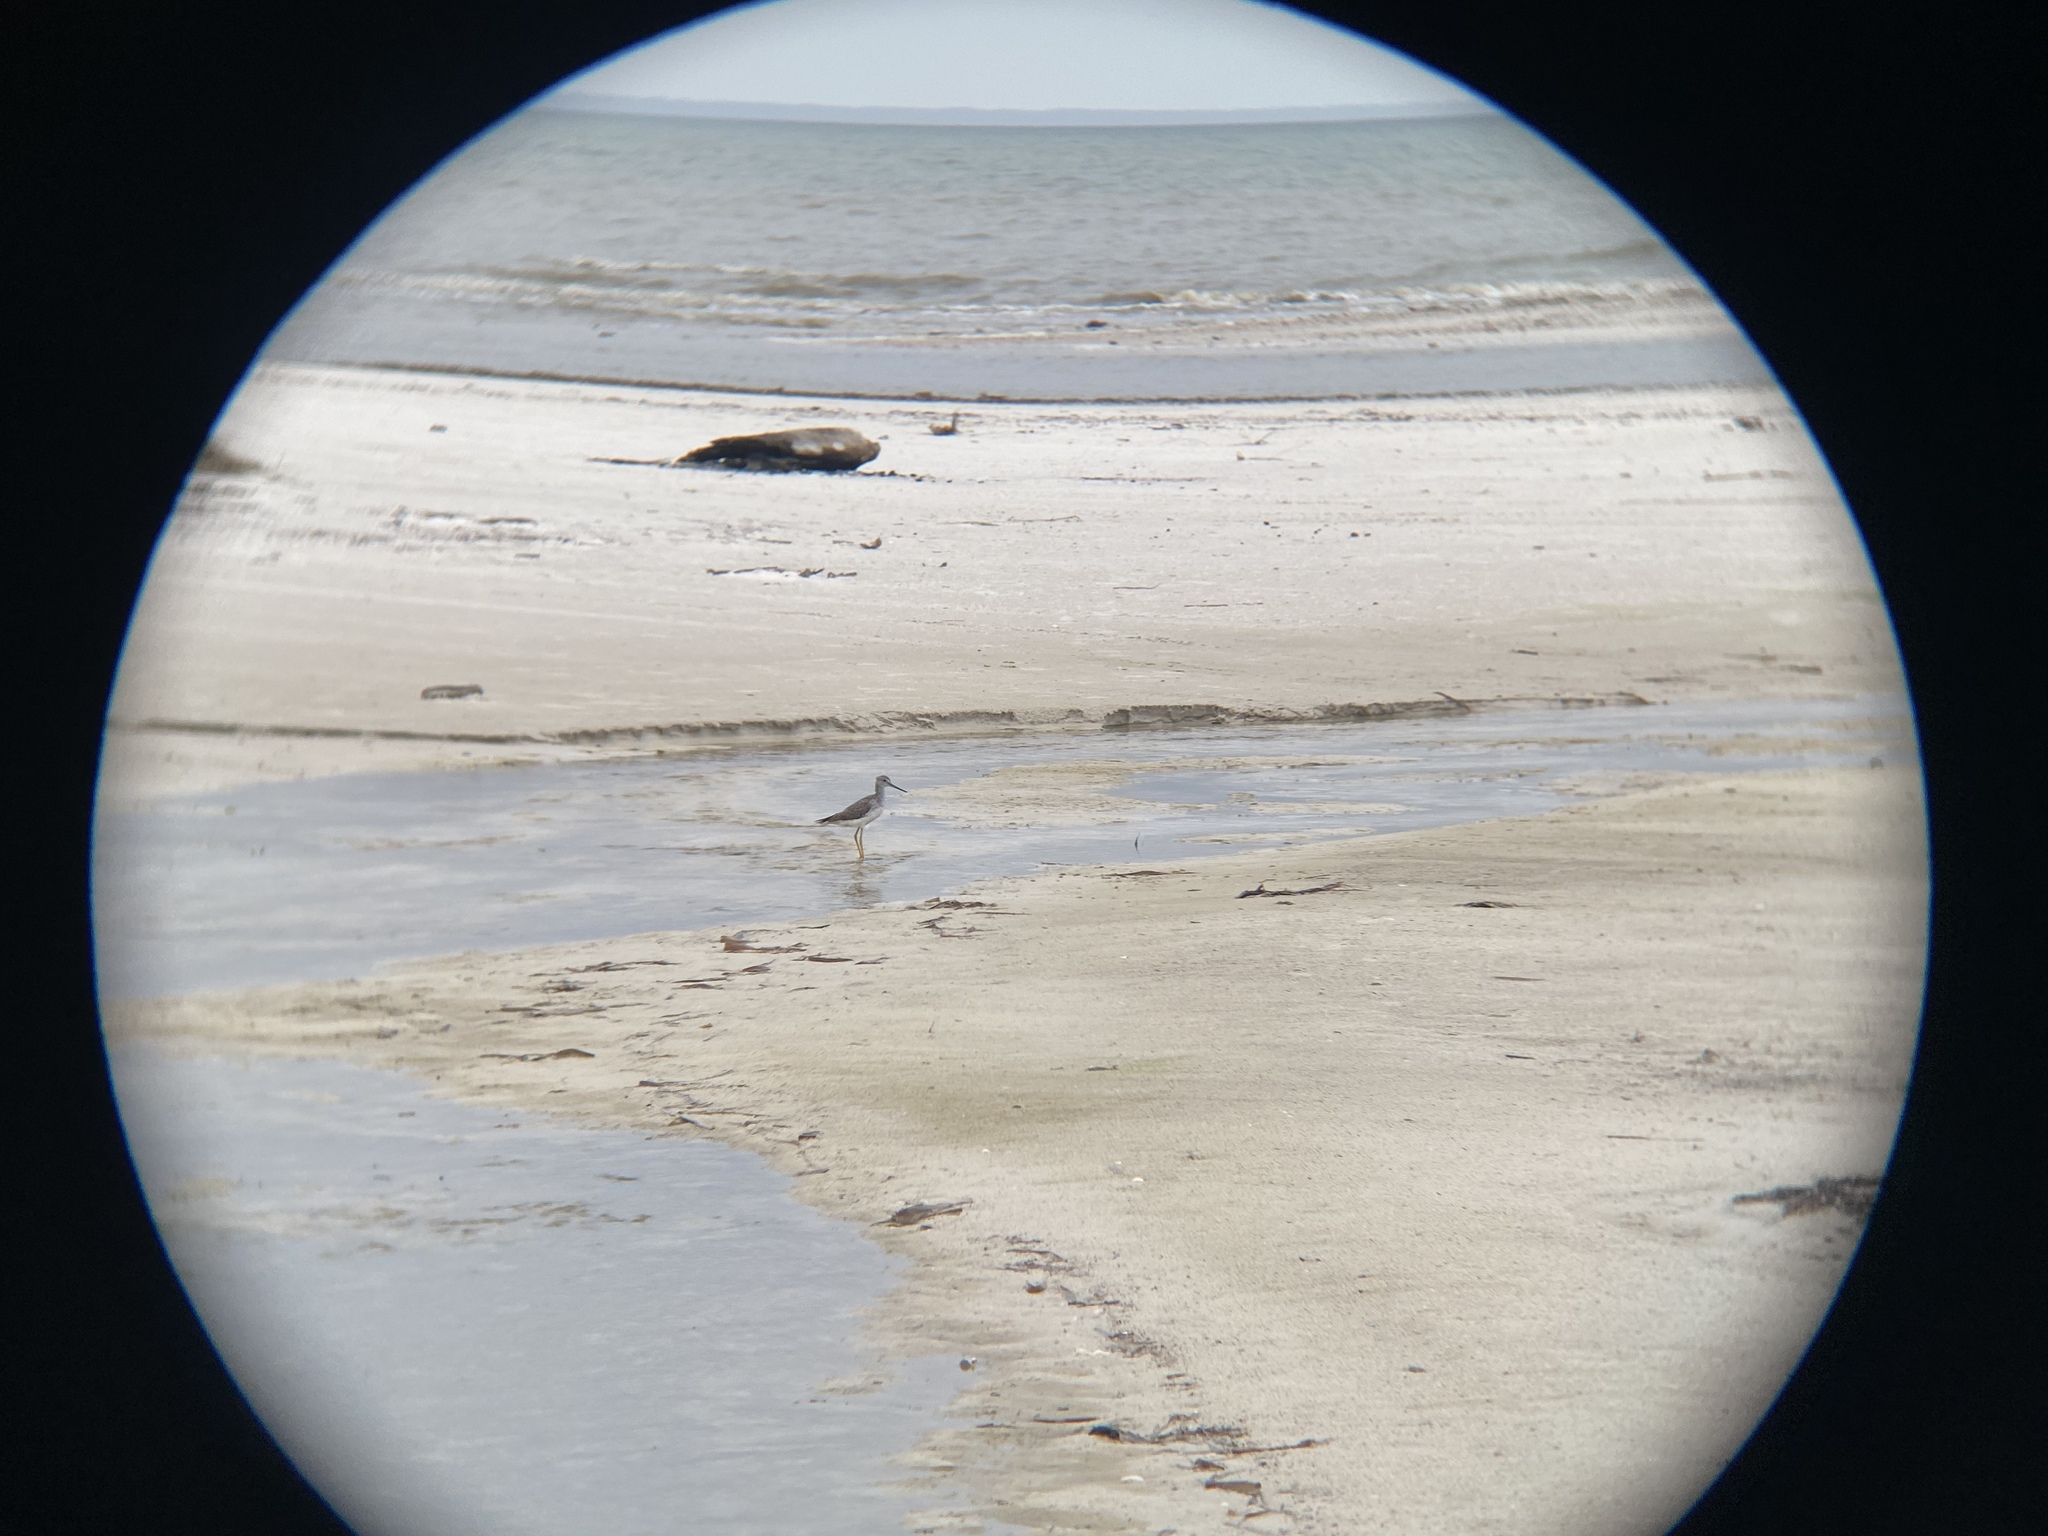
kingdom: Animalia
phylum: Chordata
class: Aves
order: Charadriiformes
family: Scolopacidae
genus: Tringa
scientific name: Tringa melanoleuca
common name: Greater yellowlegs
